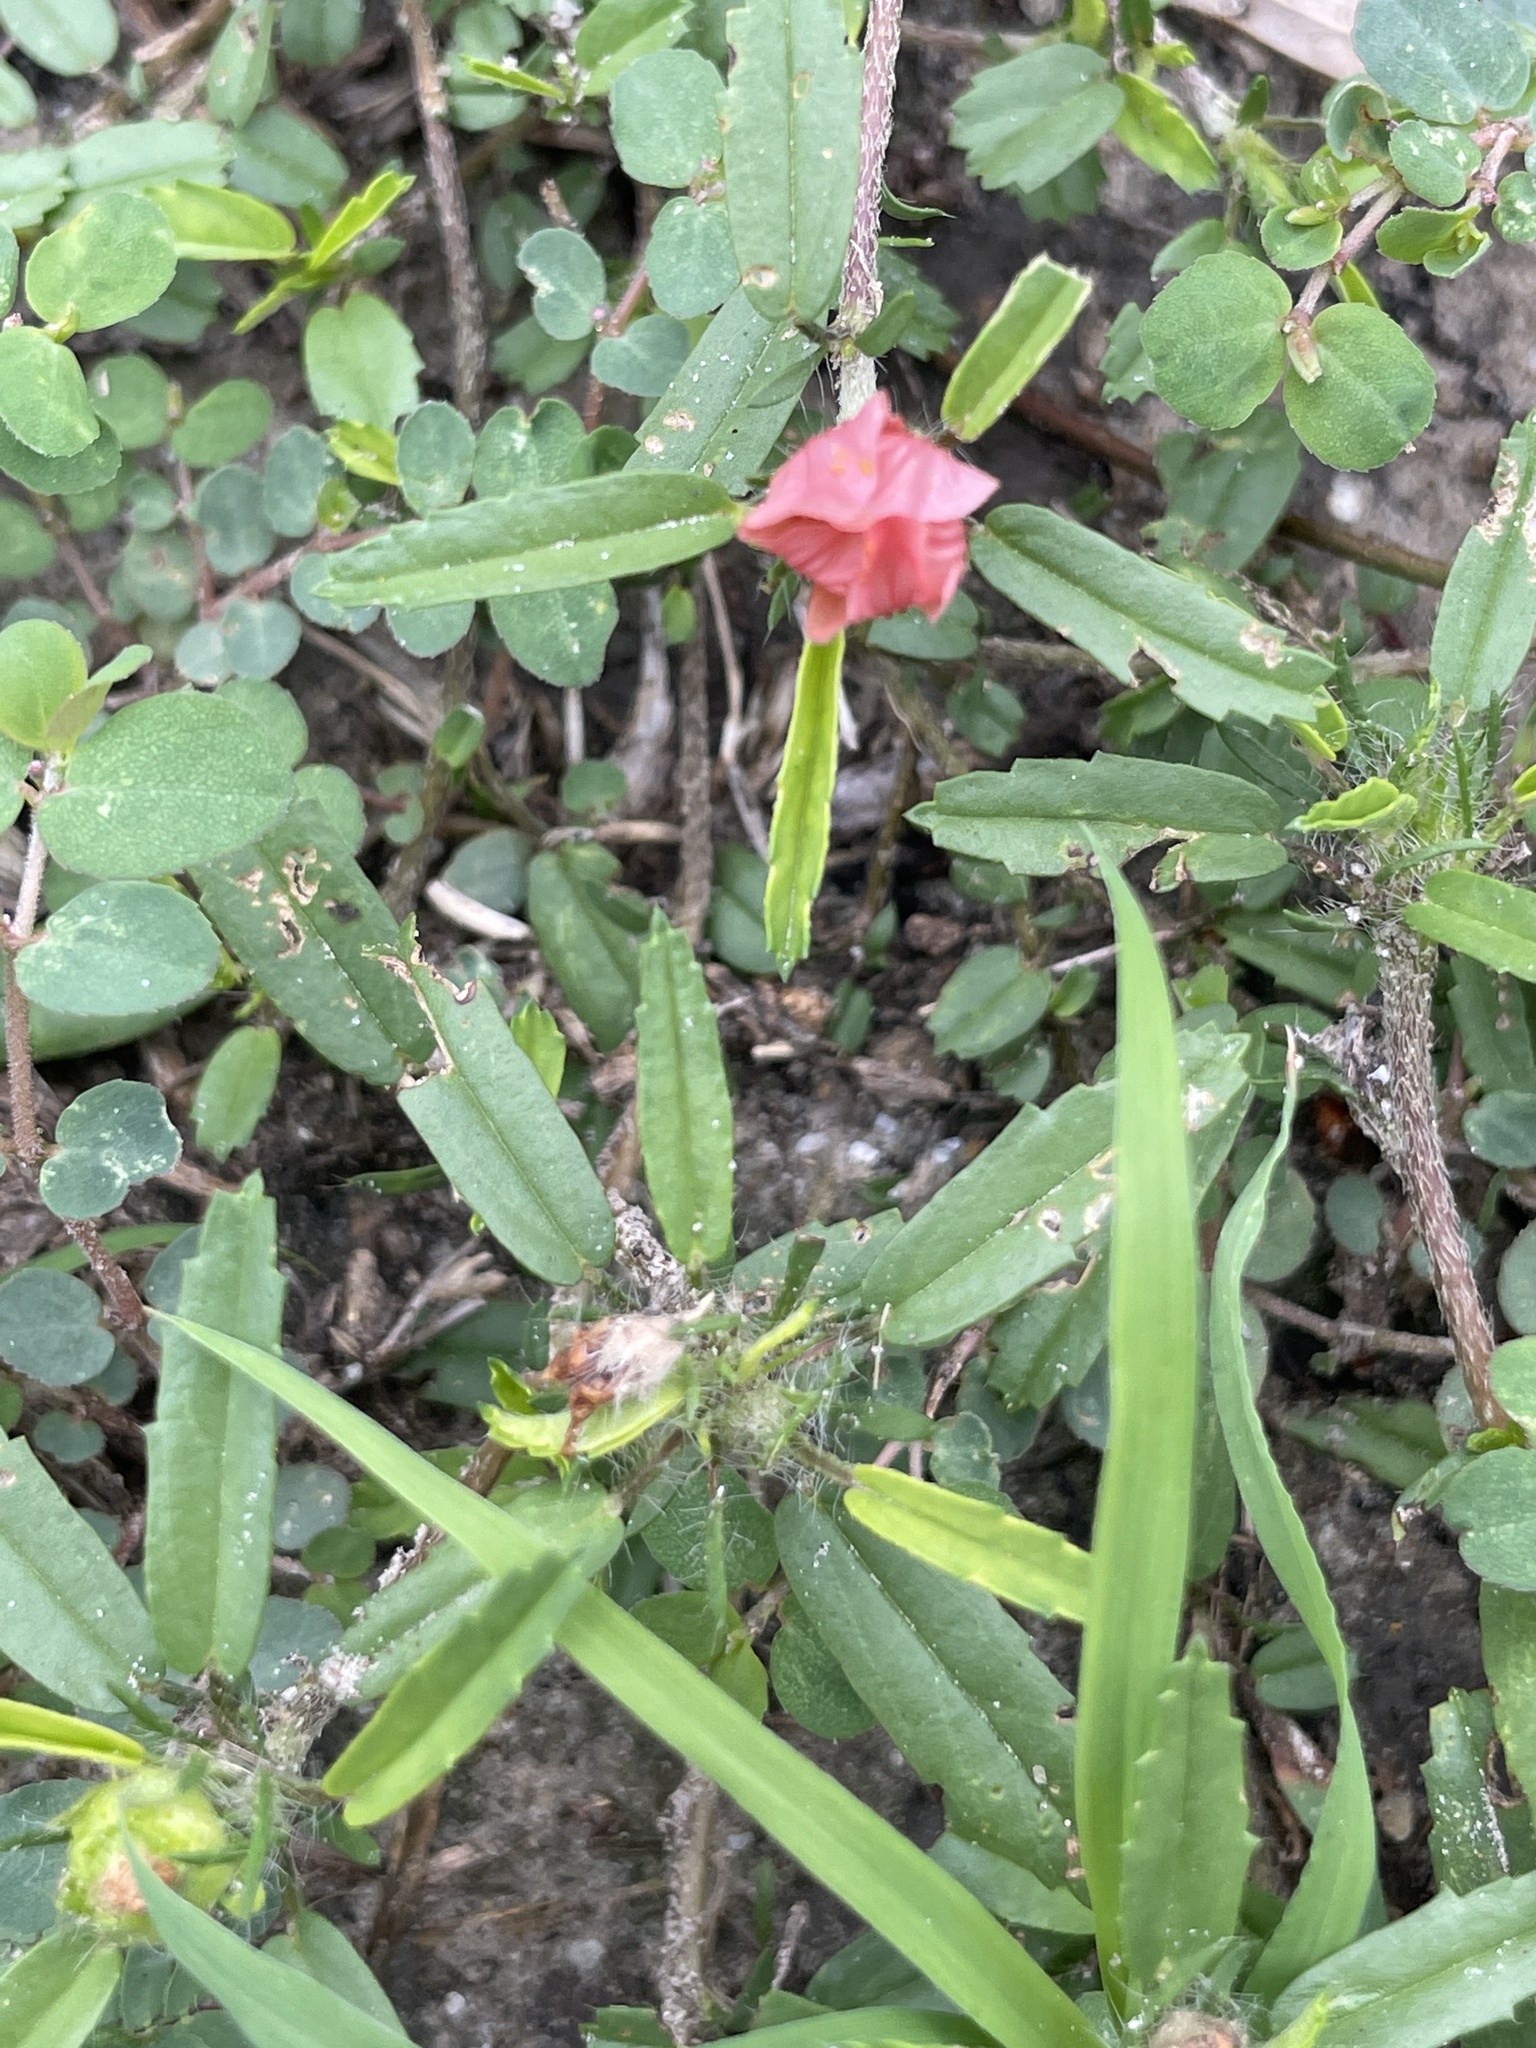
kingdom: Plantae
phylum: Tracheophyta
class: Magnoliopsida
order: Malvales
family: Malvaceae
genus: Sida
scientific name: Sida ciliaris
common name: Bracted fanpetals
